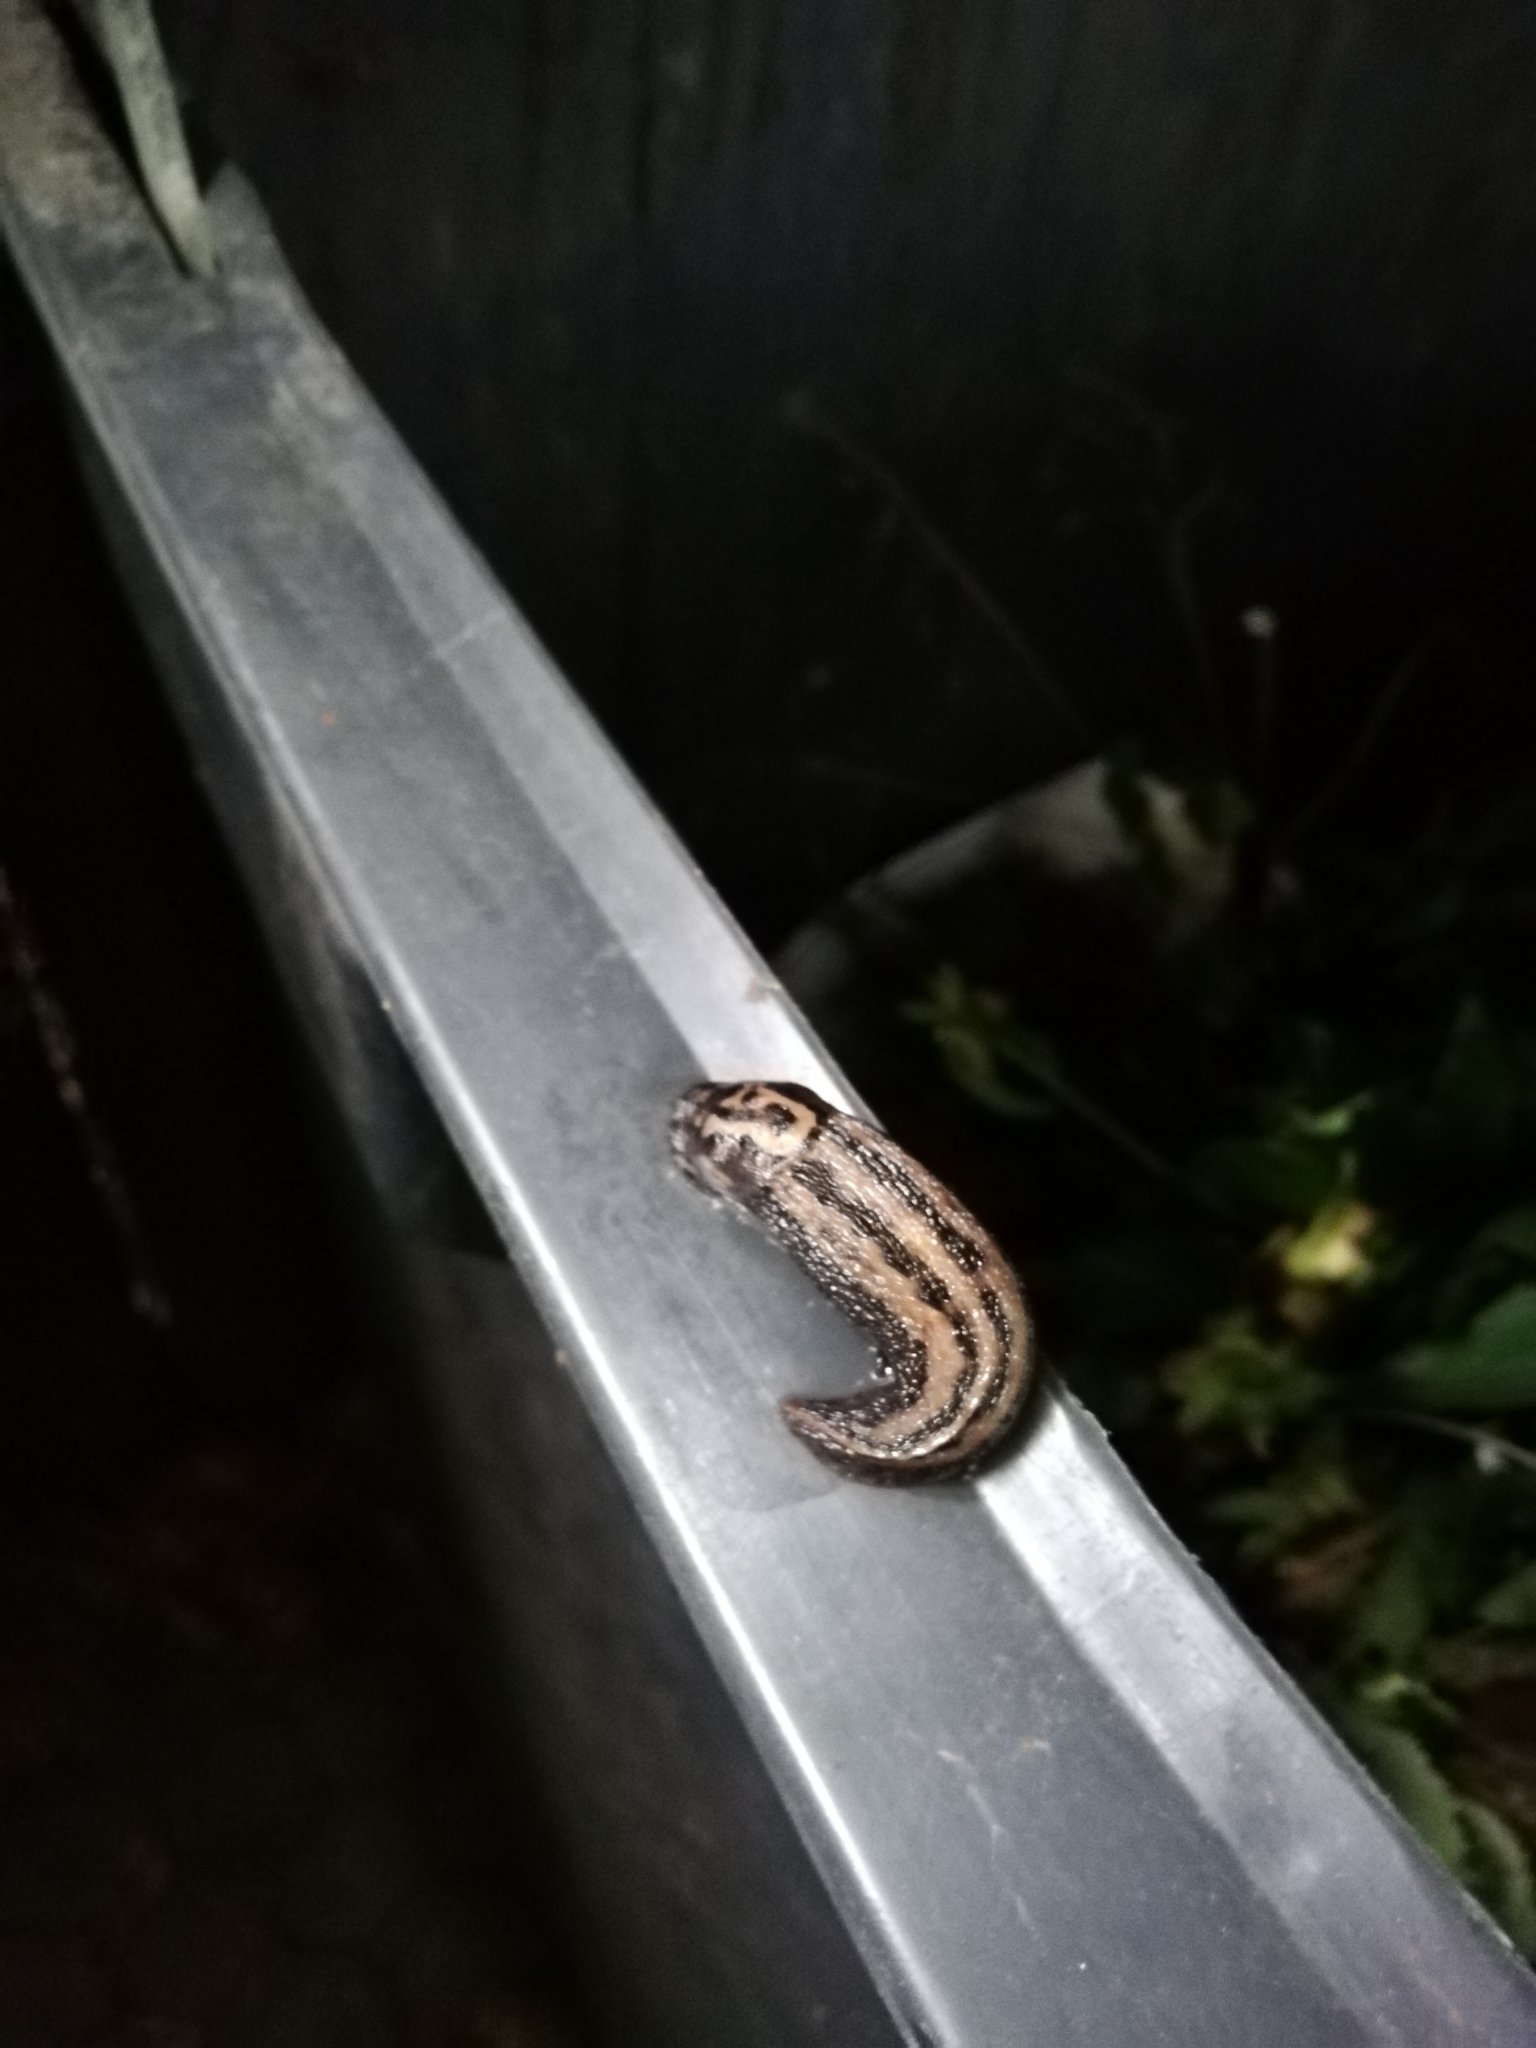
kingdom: Animalia
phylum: Mollusca
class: Gastropoda
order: Stylommatophora
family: Limacidae
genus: Limax
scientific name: Limax maximus
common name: Great grey slug
